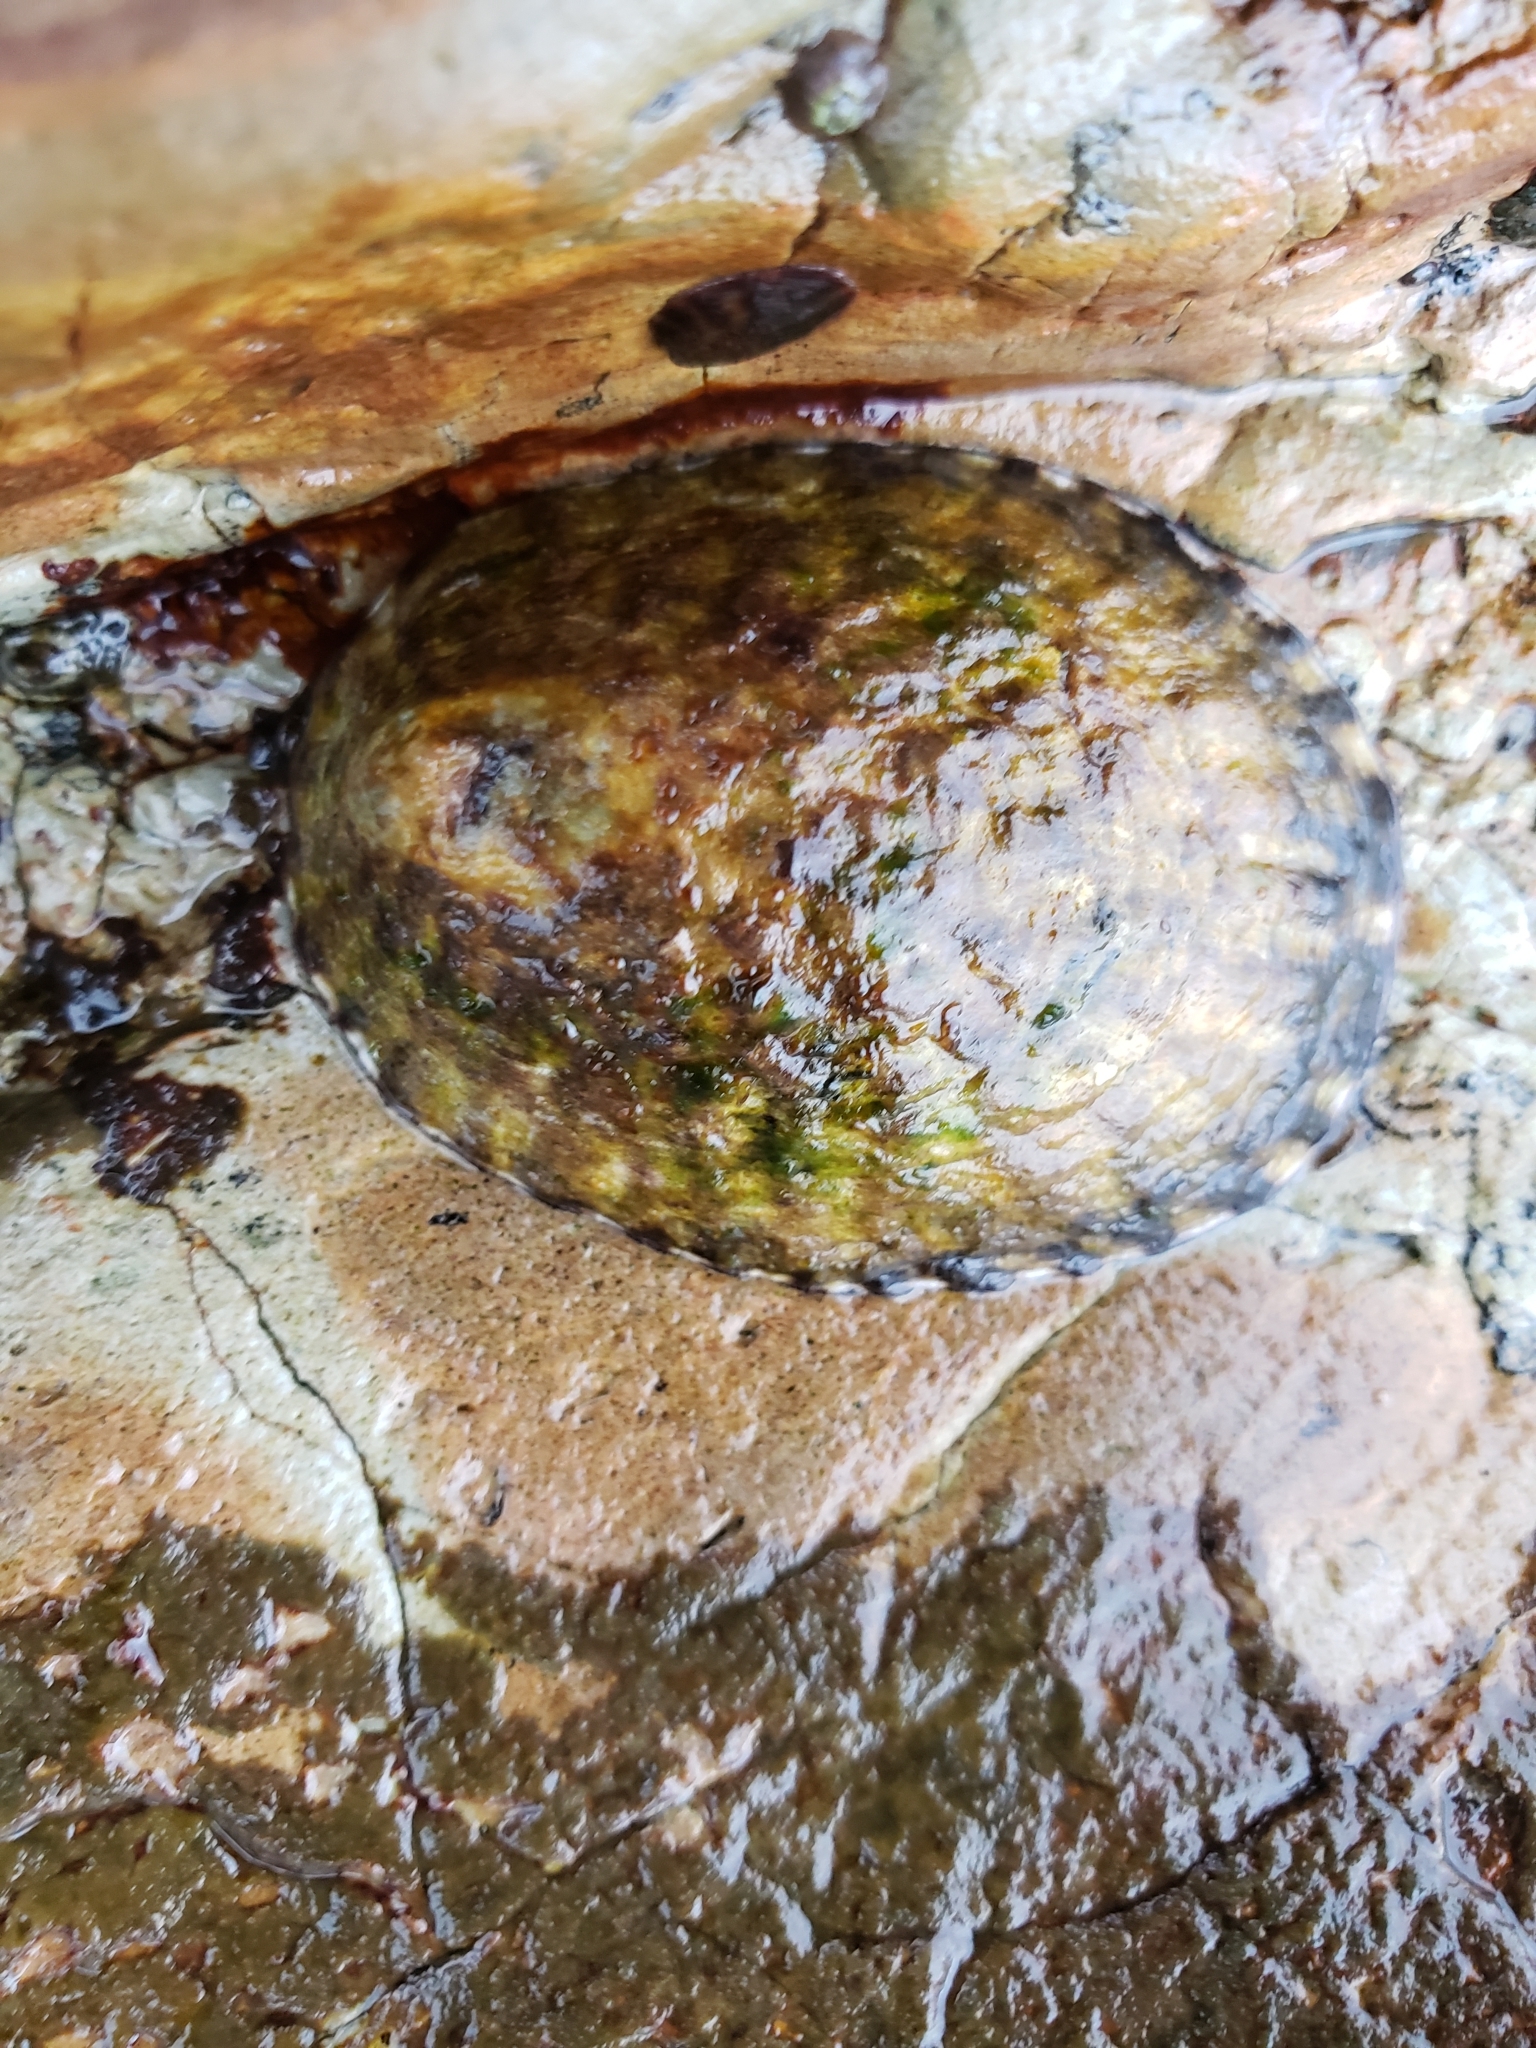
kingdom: Animalia
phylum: Mollusca
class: Gastropoda
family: Lottiidae
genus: Lottia
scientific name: Lottia gigantea
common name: Owl limpet
